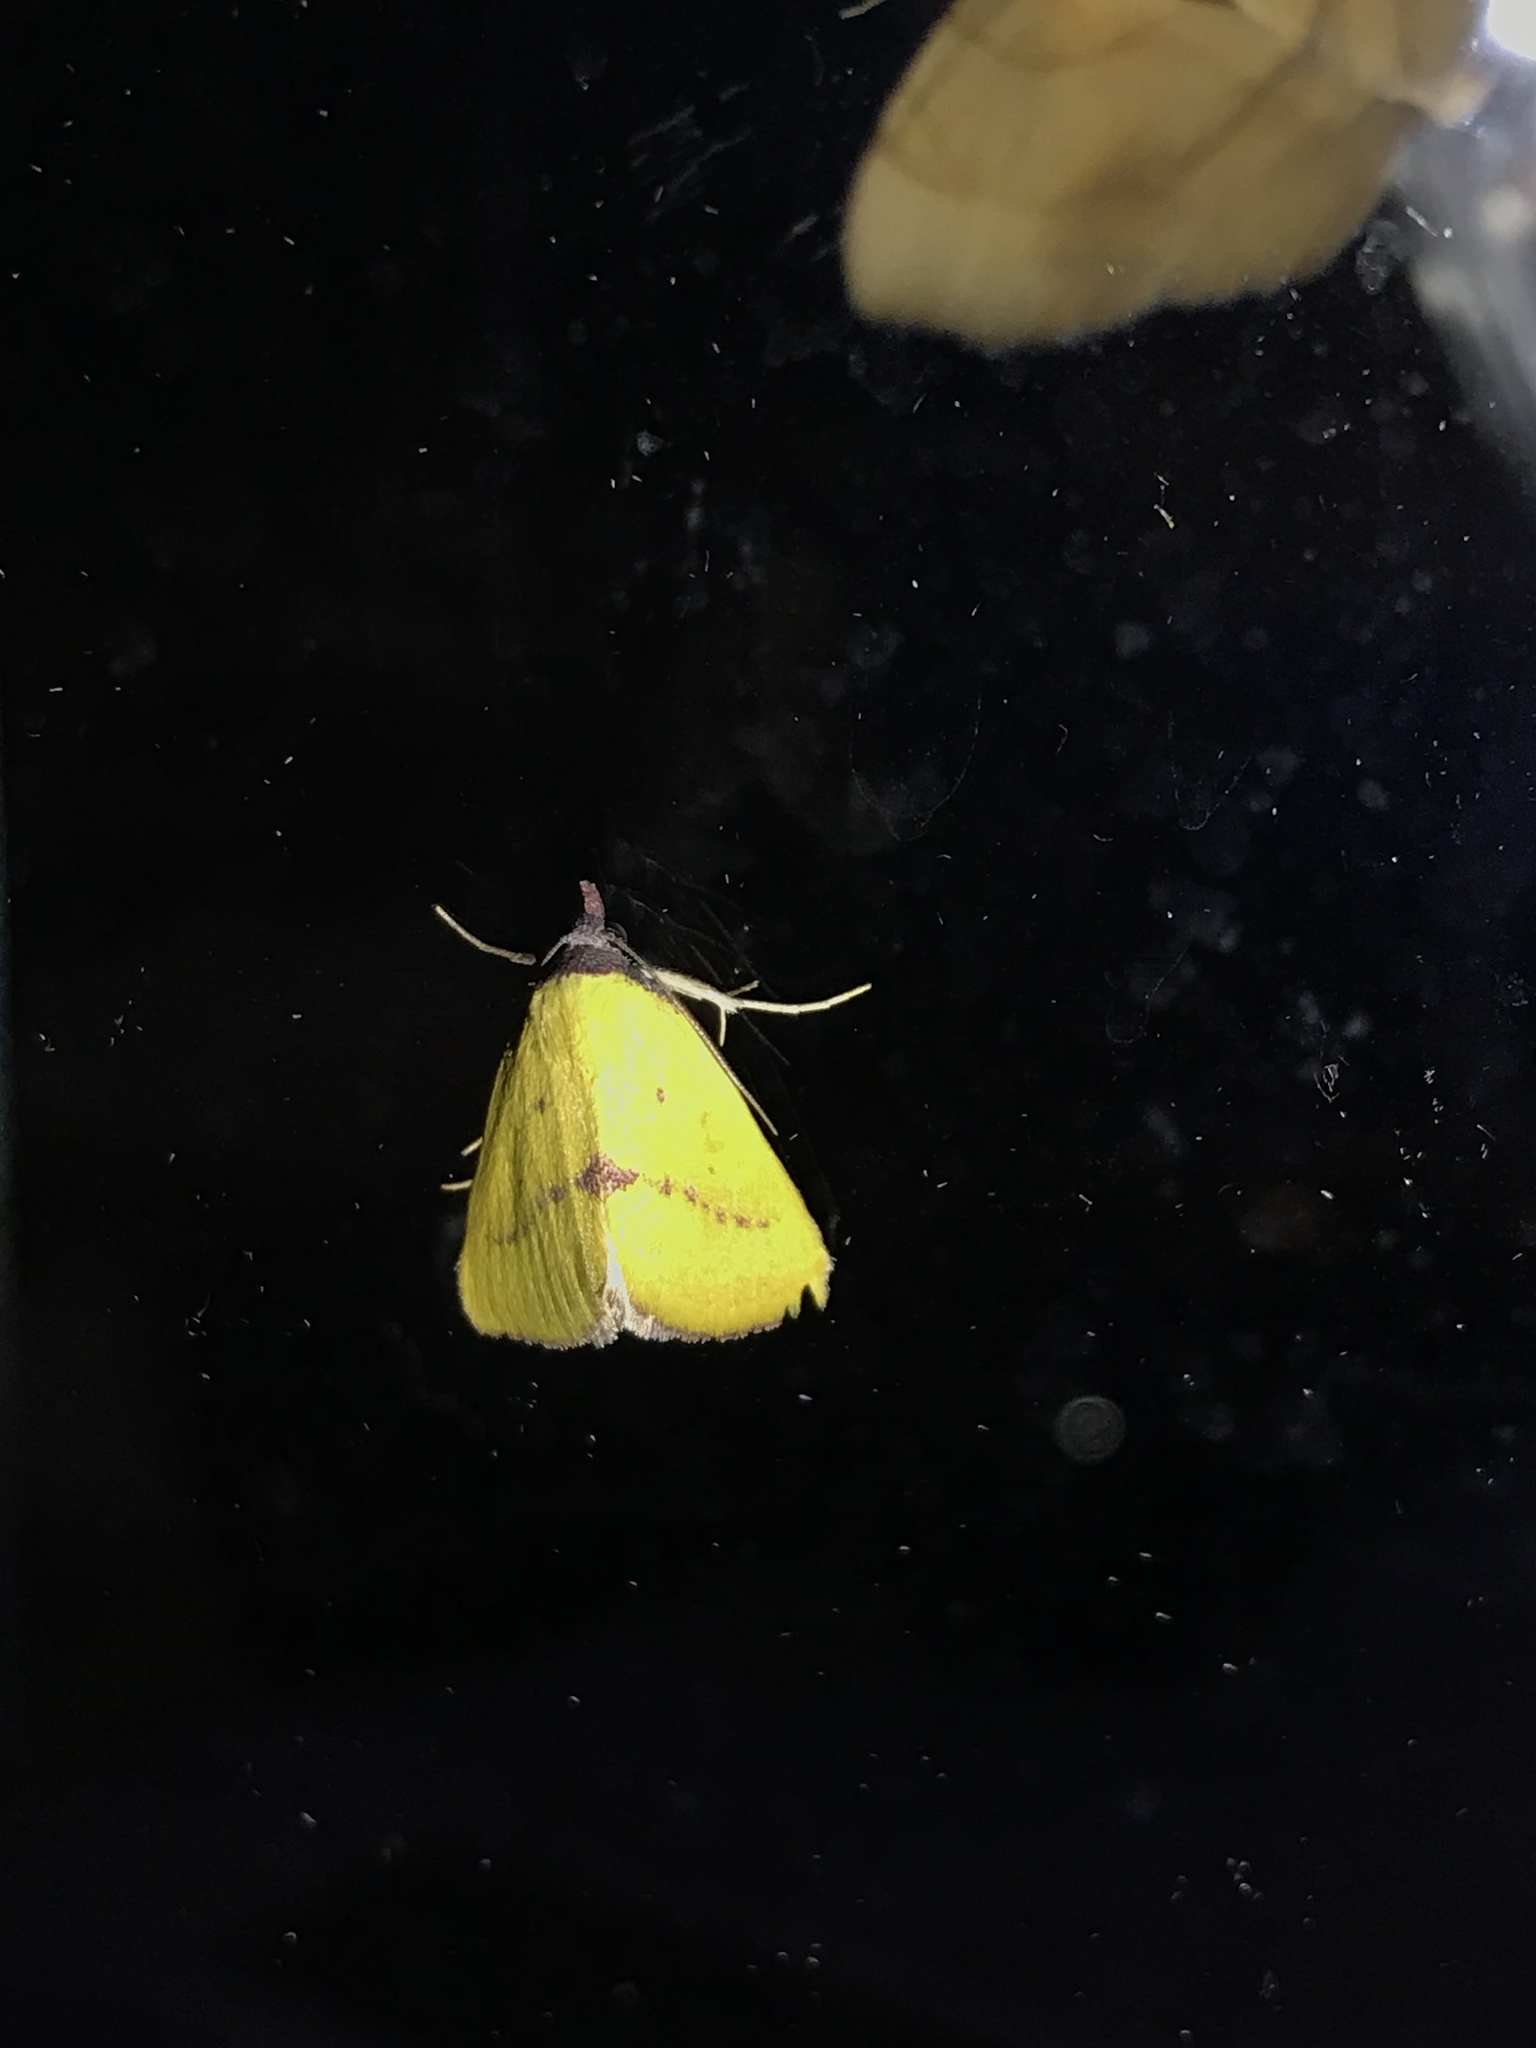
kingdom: Animalia
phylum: Arthropoda
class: Insecta
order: Lepidoptera
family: Erebidae
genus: Phytometra
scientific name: Phytometra orgiae
